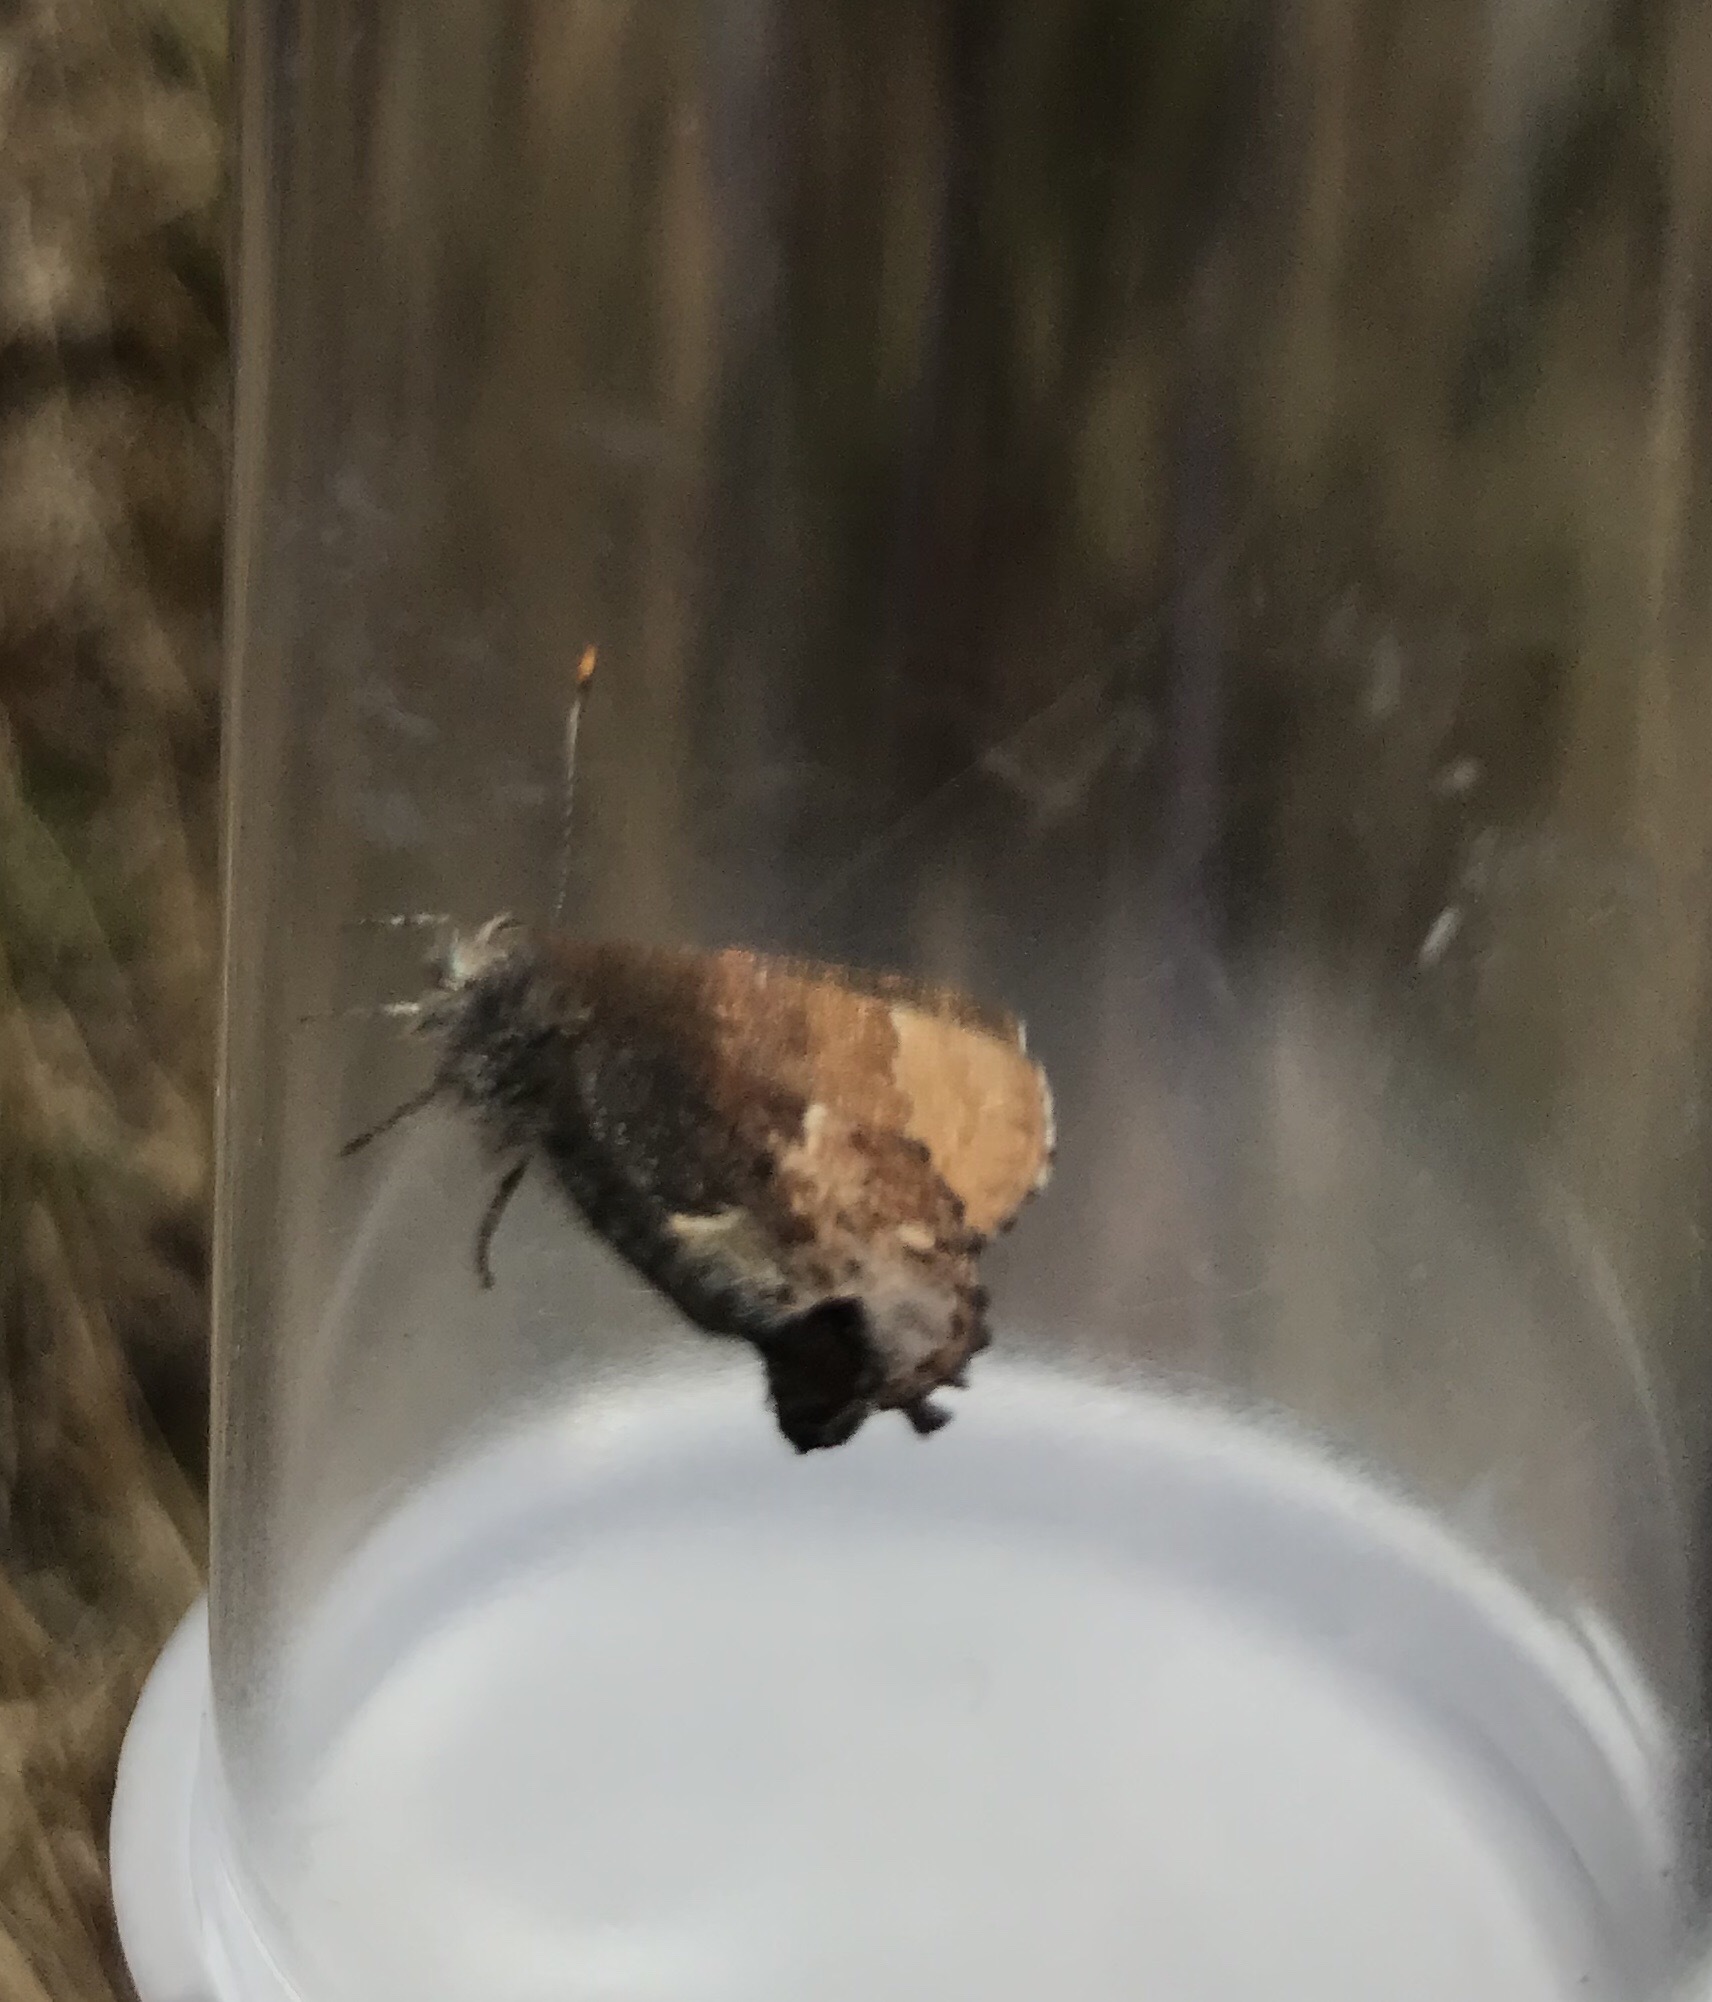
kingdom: Animalia
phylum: Arthropoda
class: Insecta
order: Lepidoptera
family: Lycaenidae
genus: Incisalia
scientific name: Incisalia henrici
